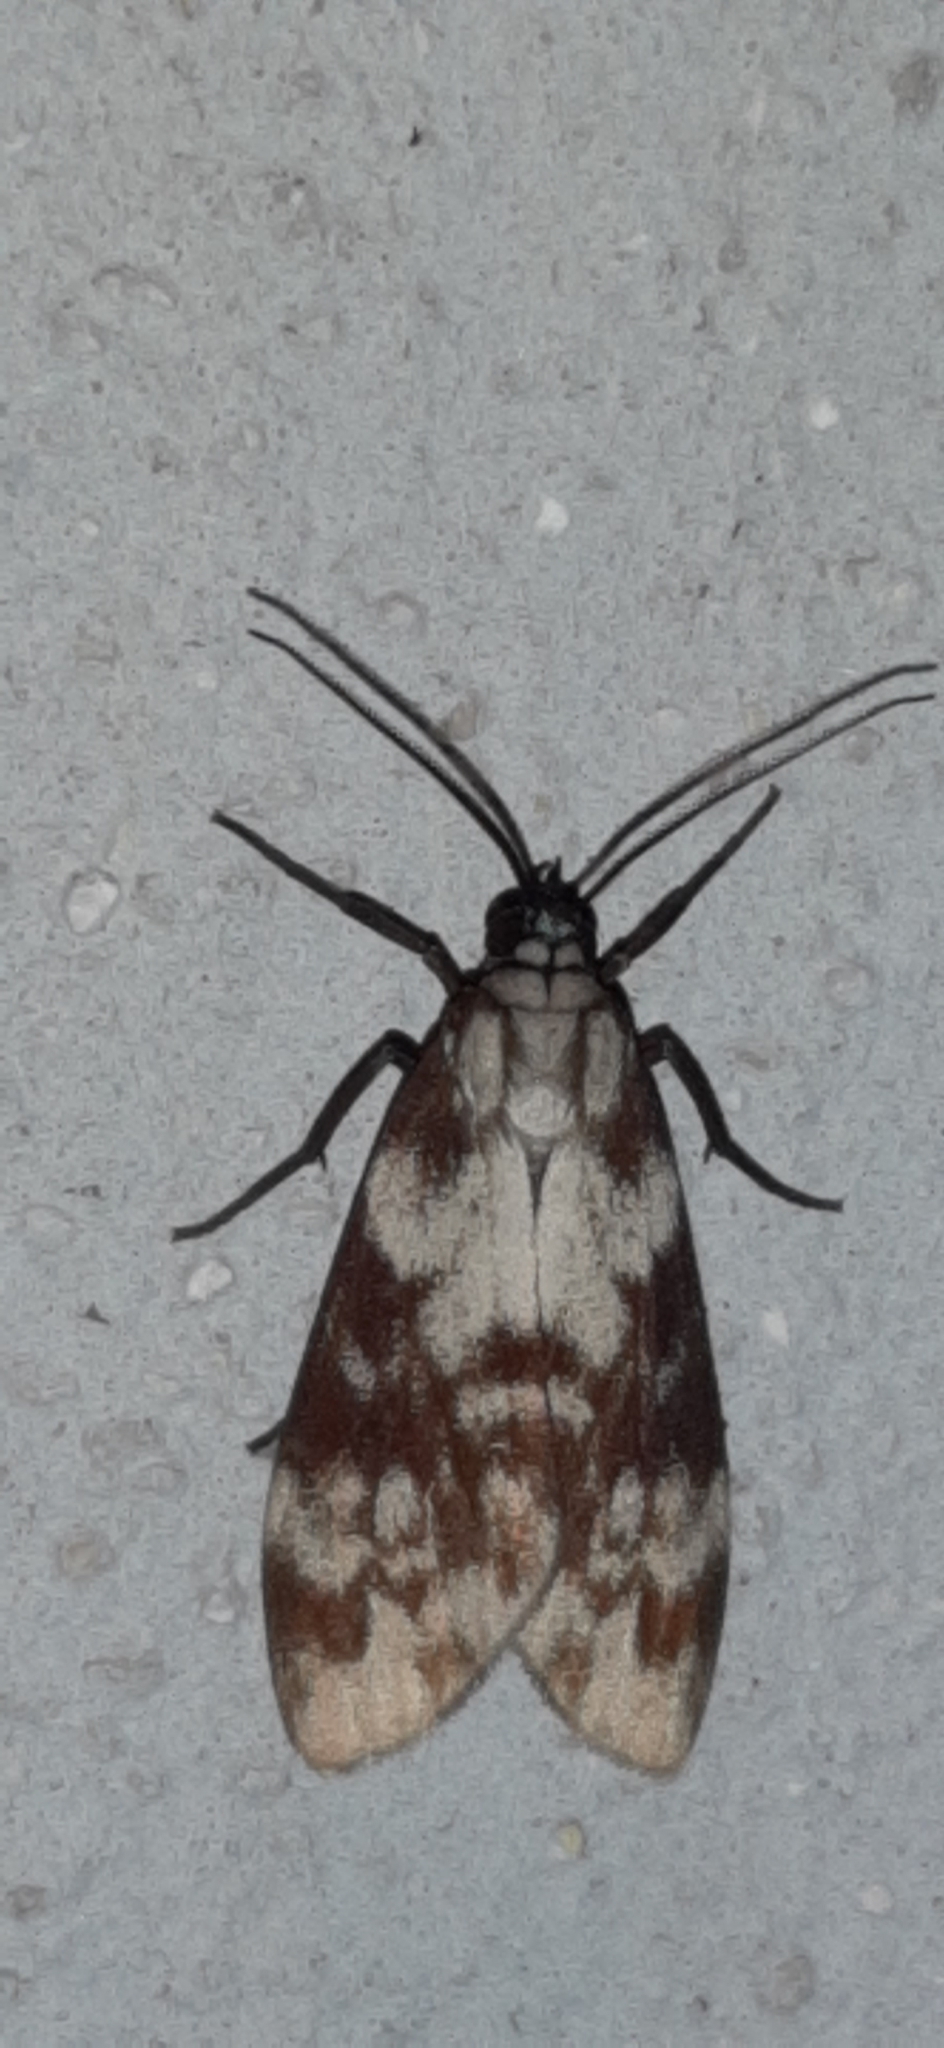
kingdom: Animalia
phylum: Arthropoda
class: Insecta
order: Lepidoptera
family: Erebidae
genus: Eucereon
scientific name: Eucereon discolor
